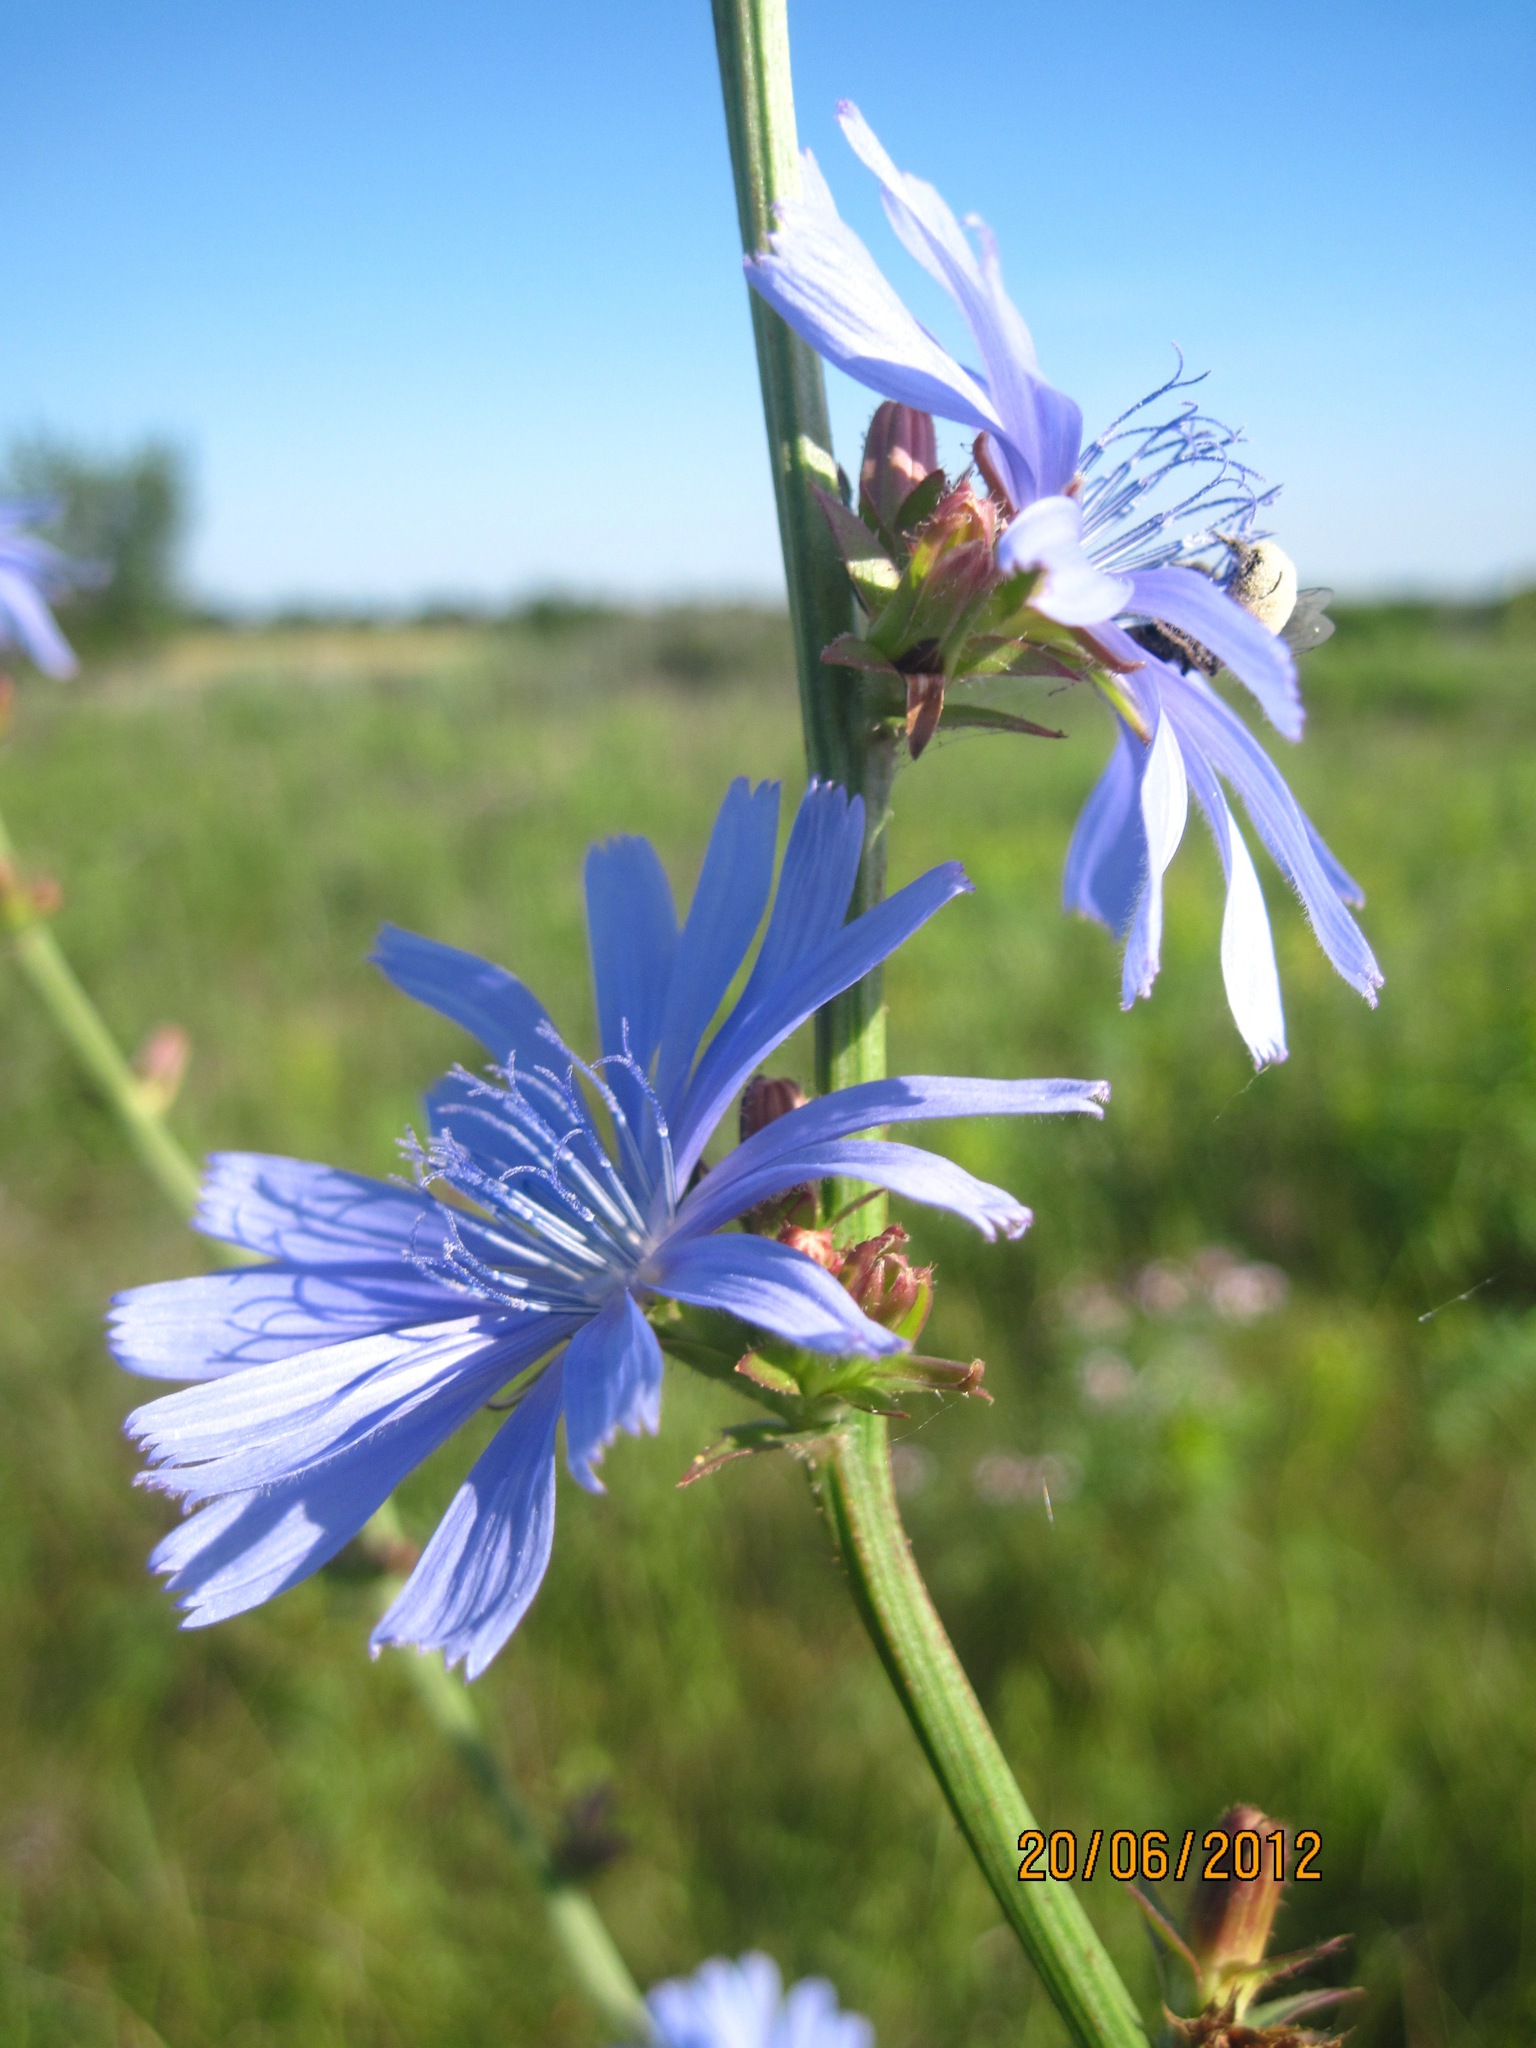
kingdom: Plantae
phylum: Tracheophyta
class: Magnoliopsida
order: Asterales
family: Asteraceae
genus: Cichorium
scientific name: Cichorium intybus
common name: Chicory
